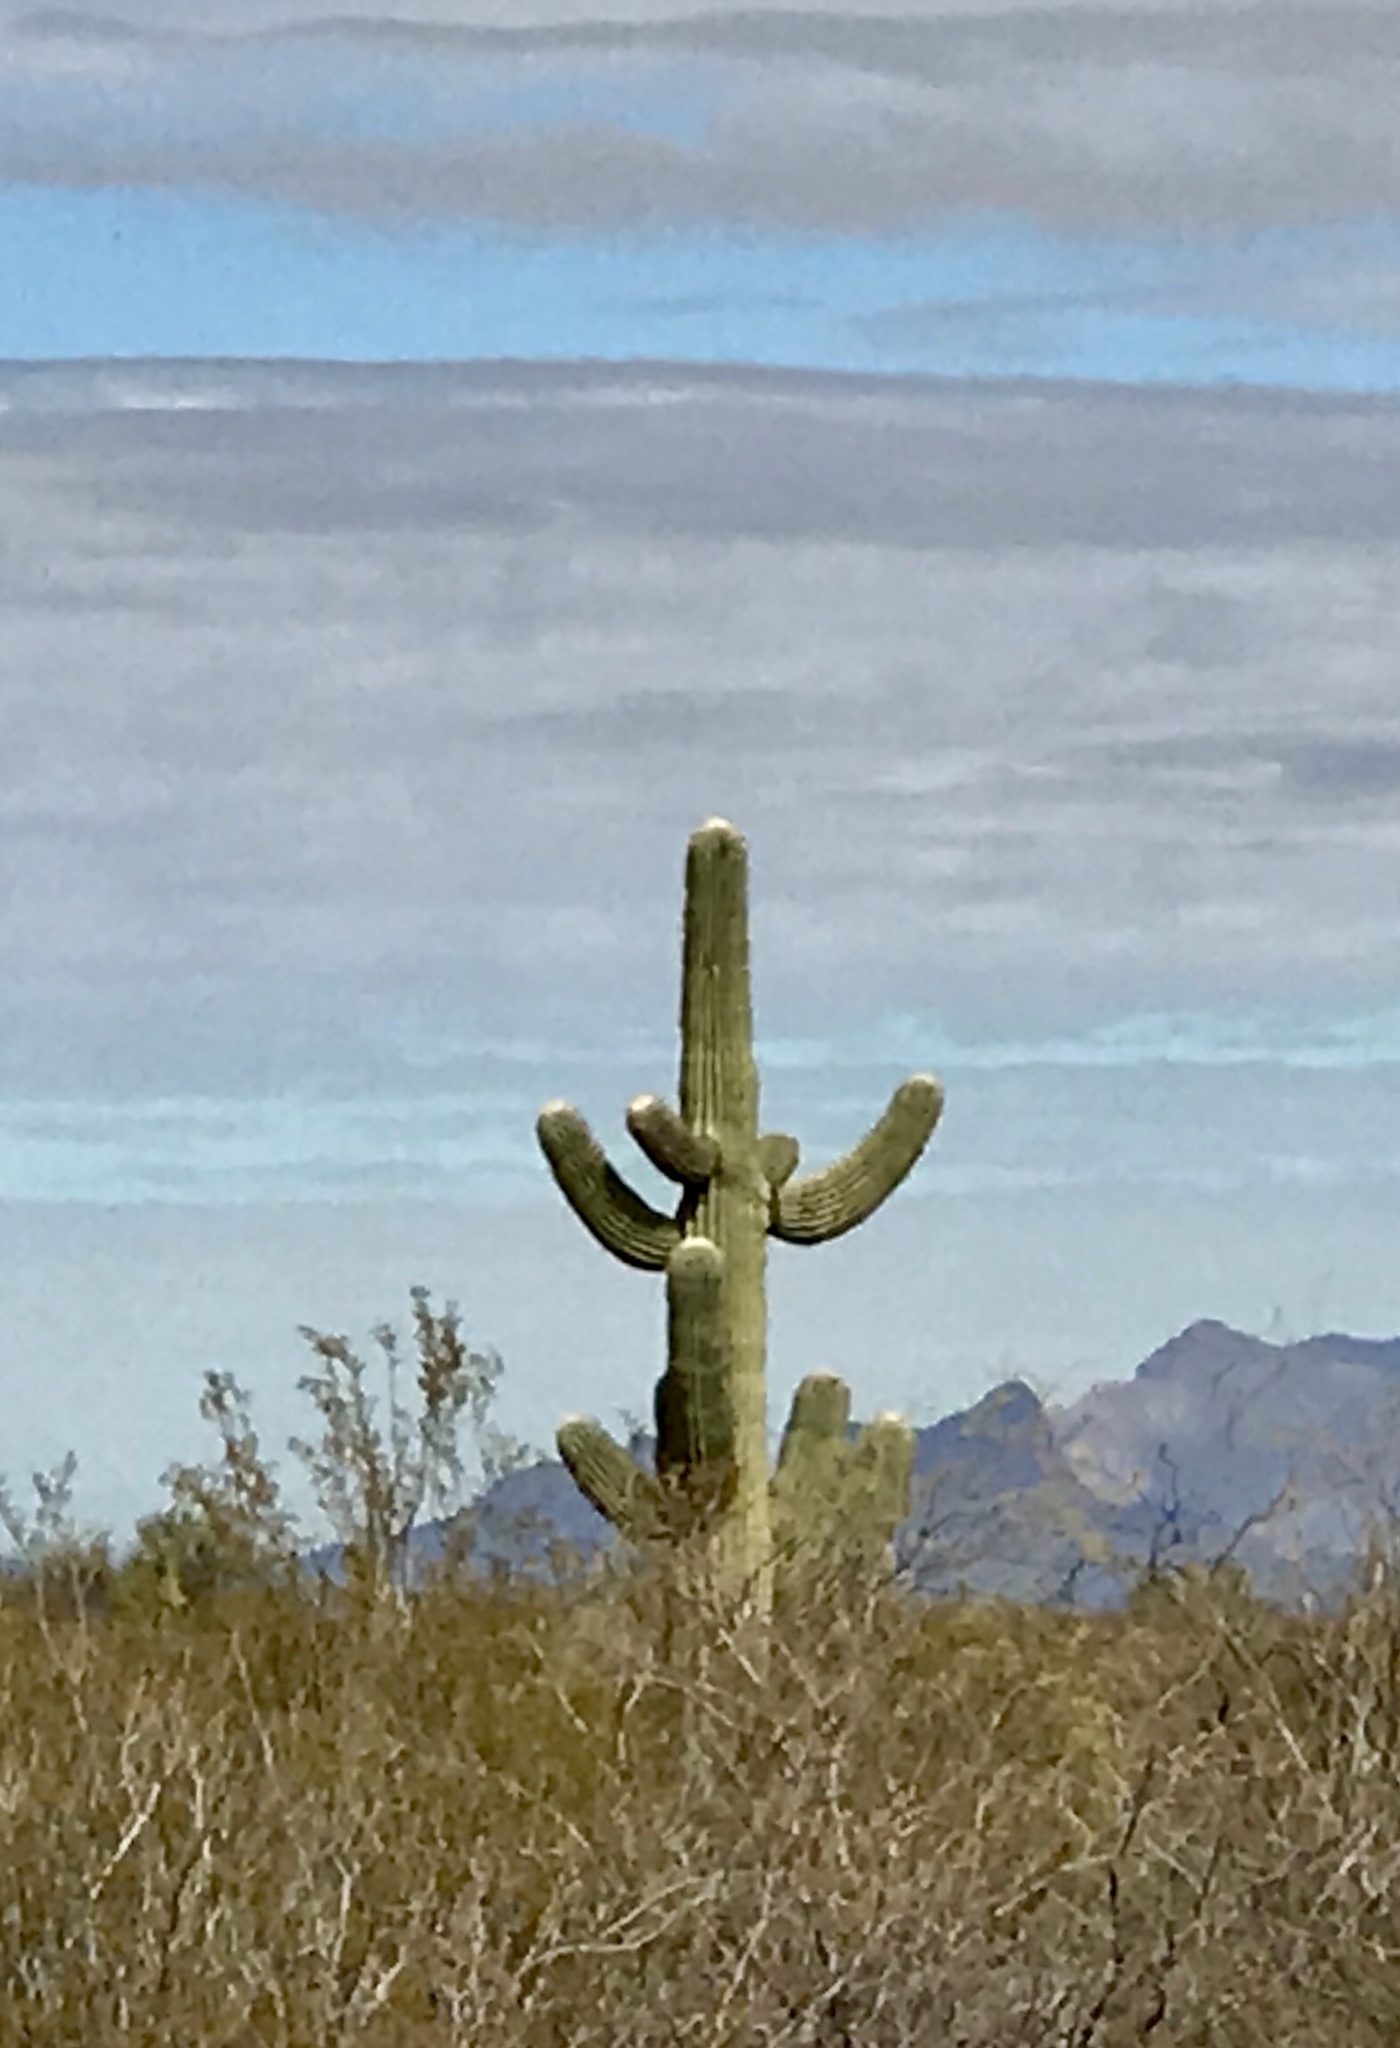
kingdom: Plantae
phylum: Tracheophyta
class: Magnoliopsida
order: Caryophyllales
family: Cactaceae
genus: Carnegiea
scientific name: Carnegiea gigantea
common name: Saguaro
